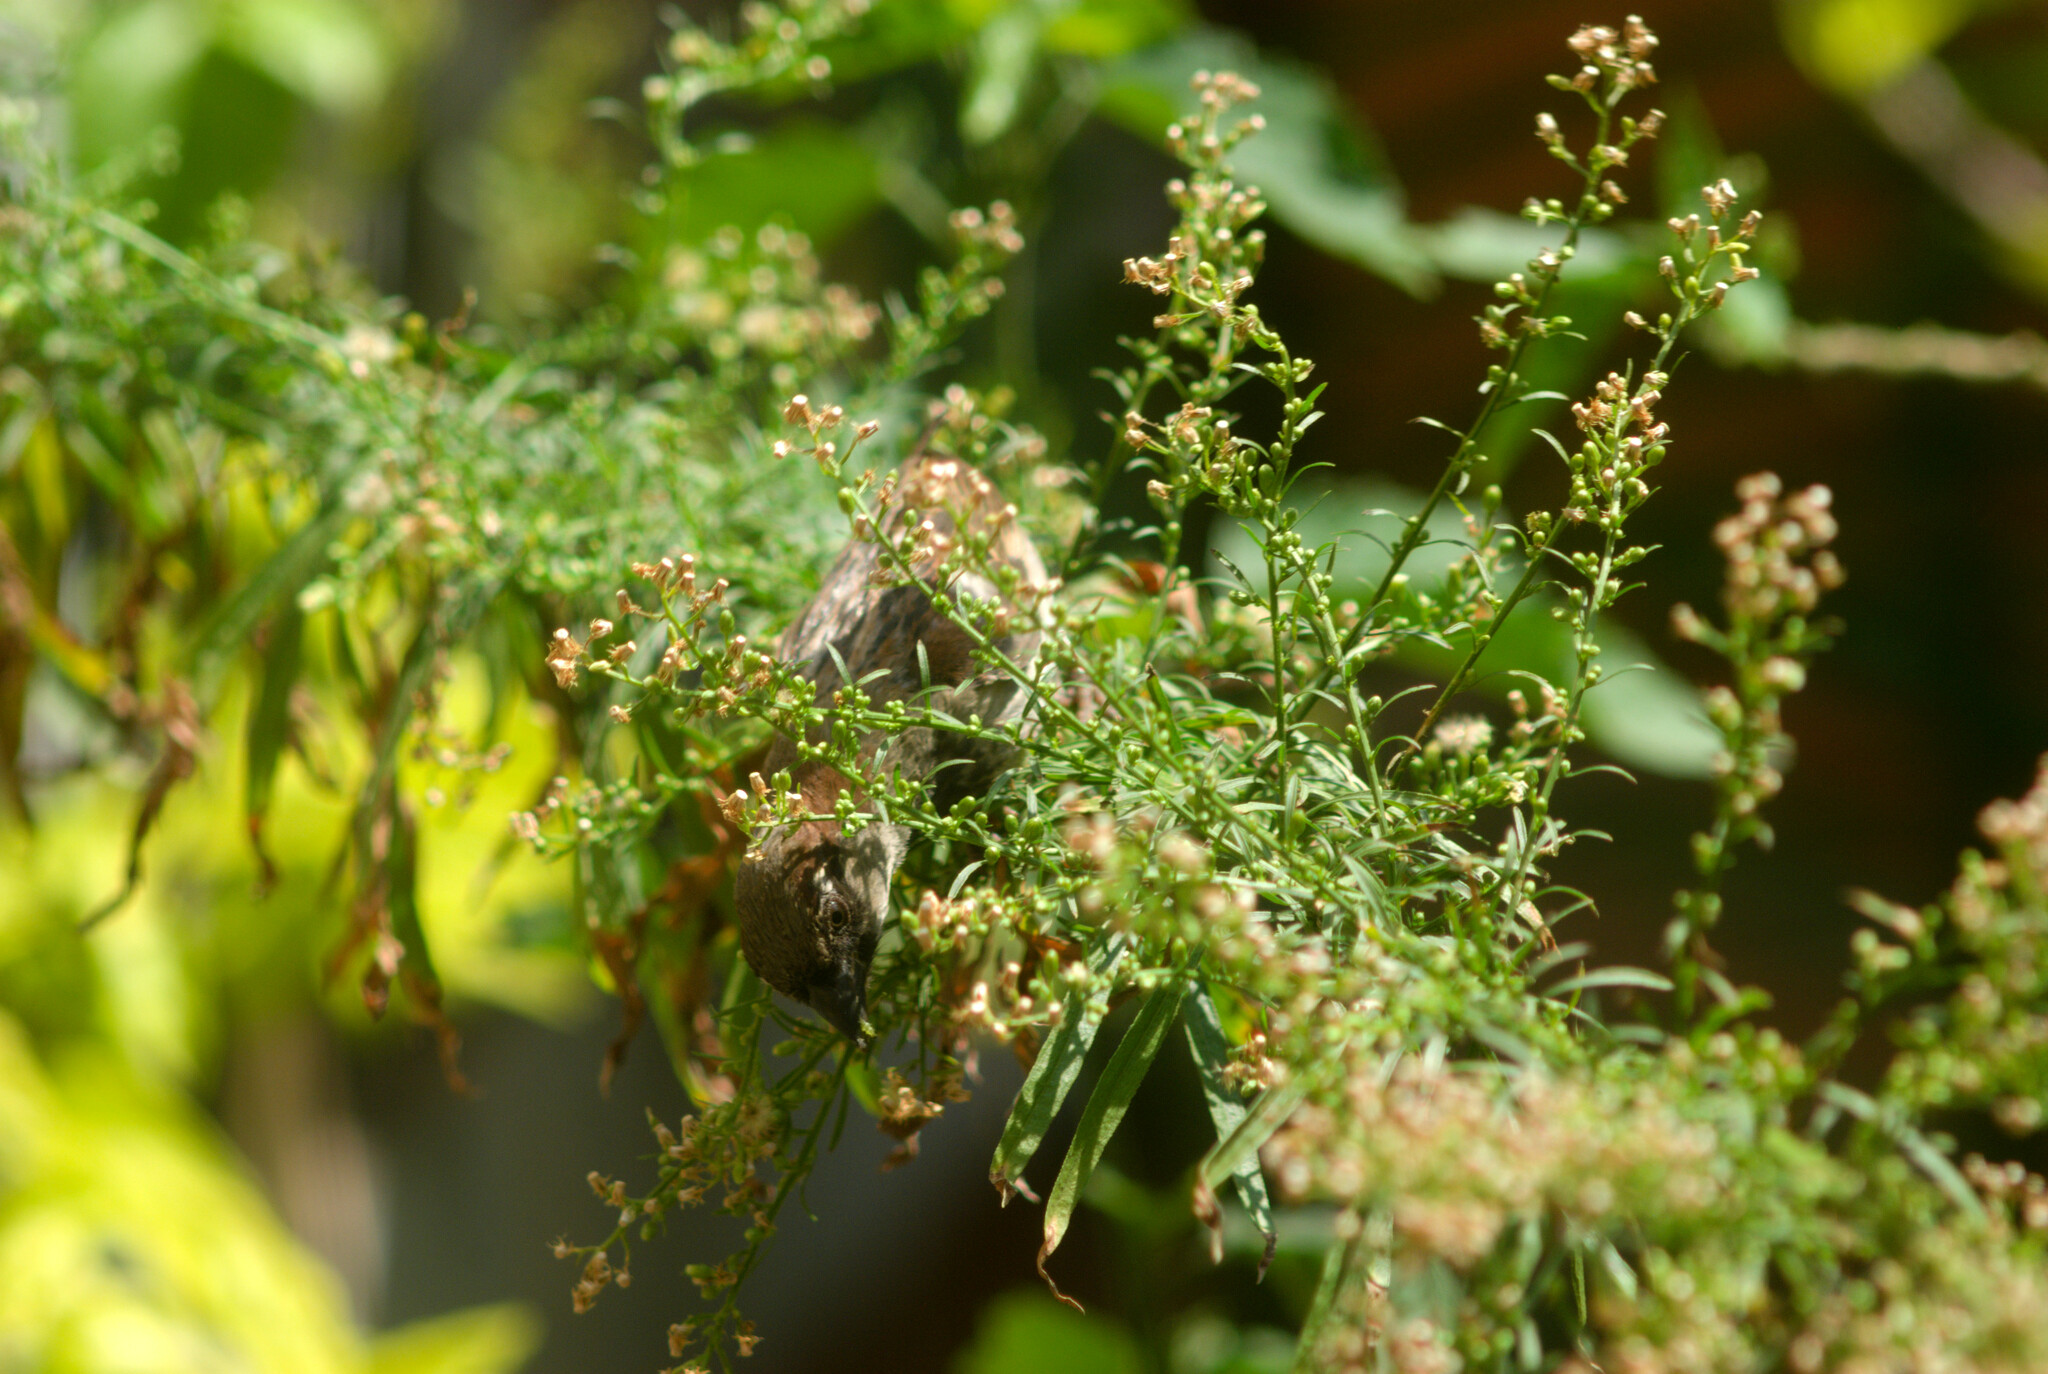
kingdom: Animalia
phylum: Chordata
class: Aves
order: Passeriformes
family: Passeridae
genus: Passer
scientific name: Passer domesticus
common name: House sparrow
